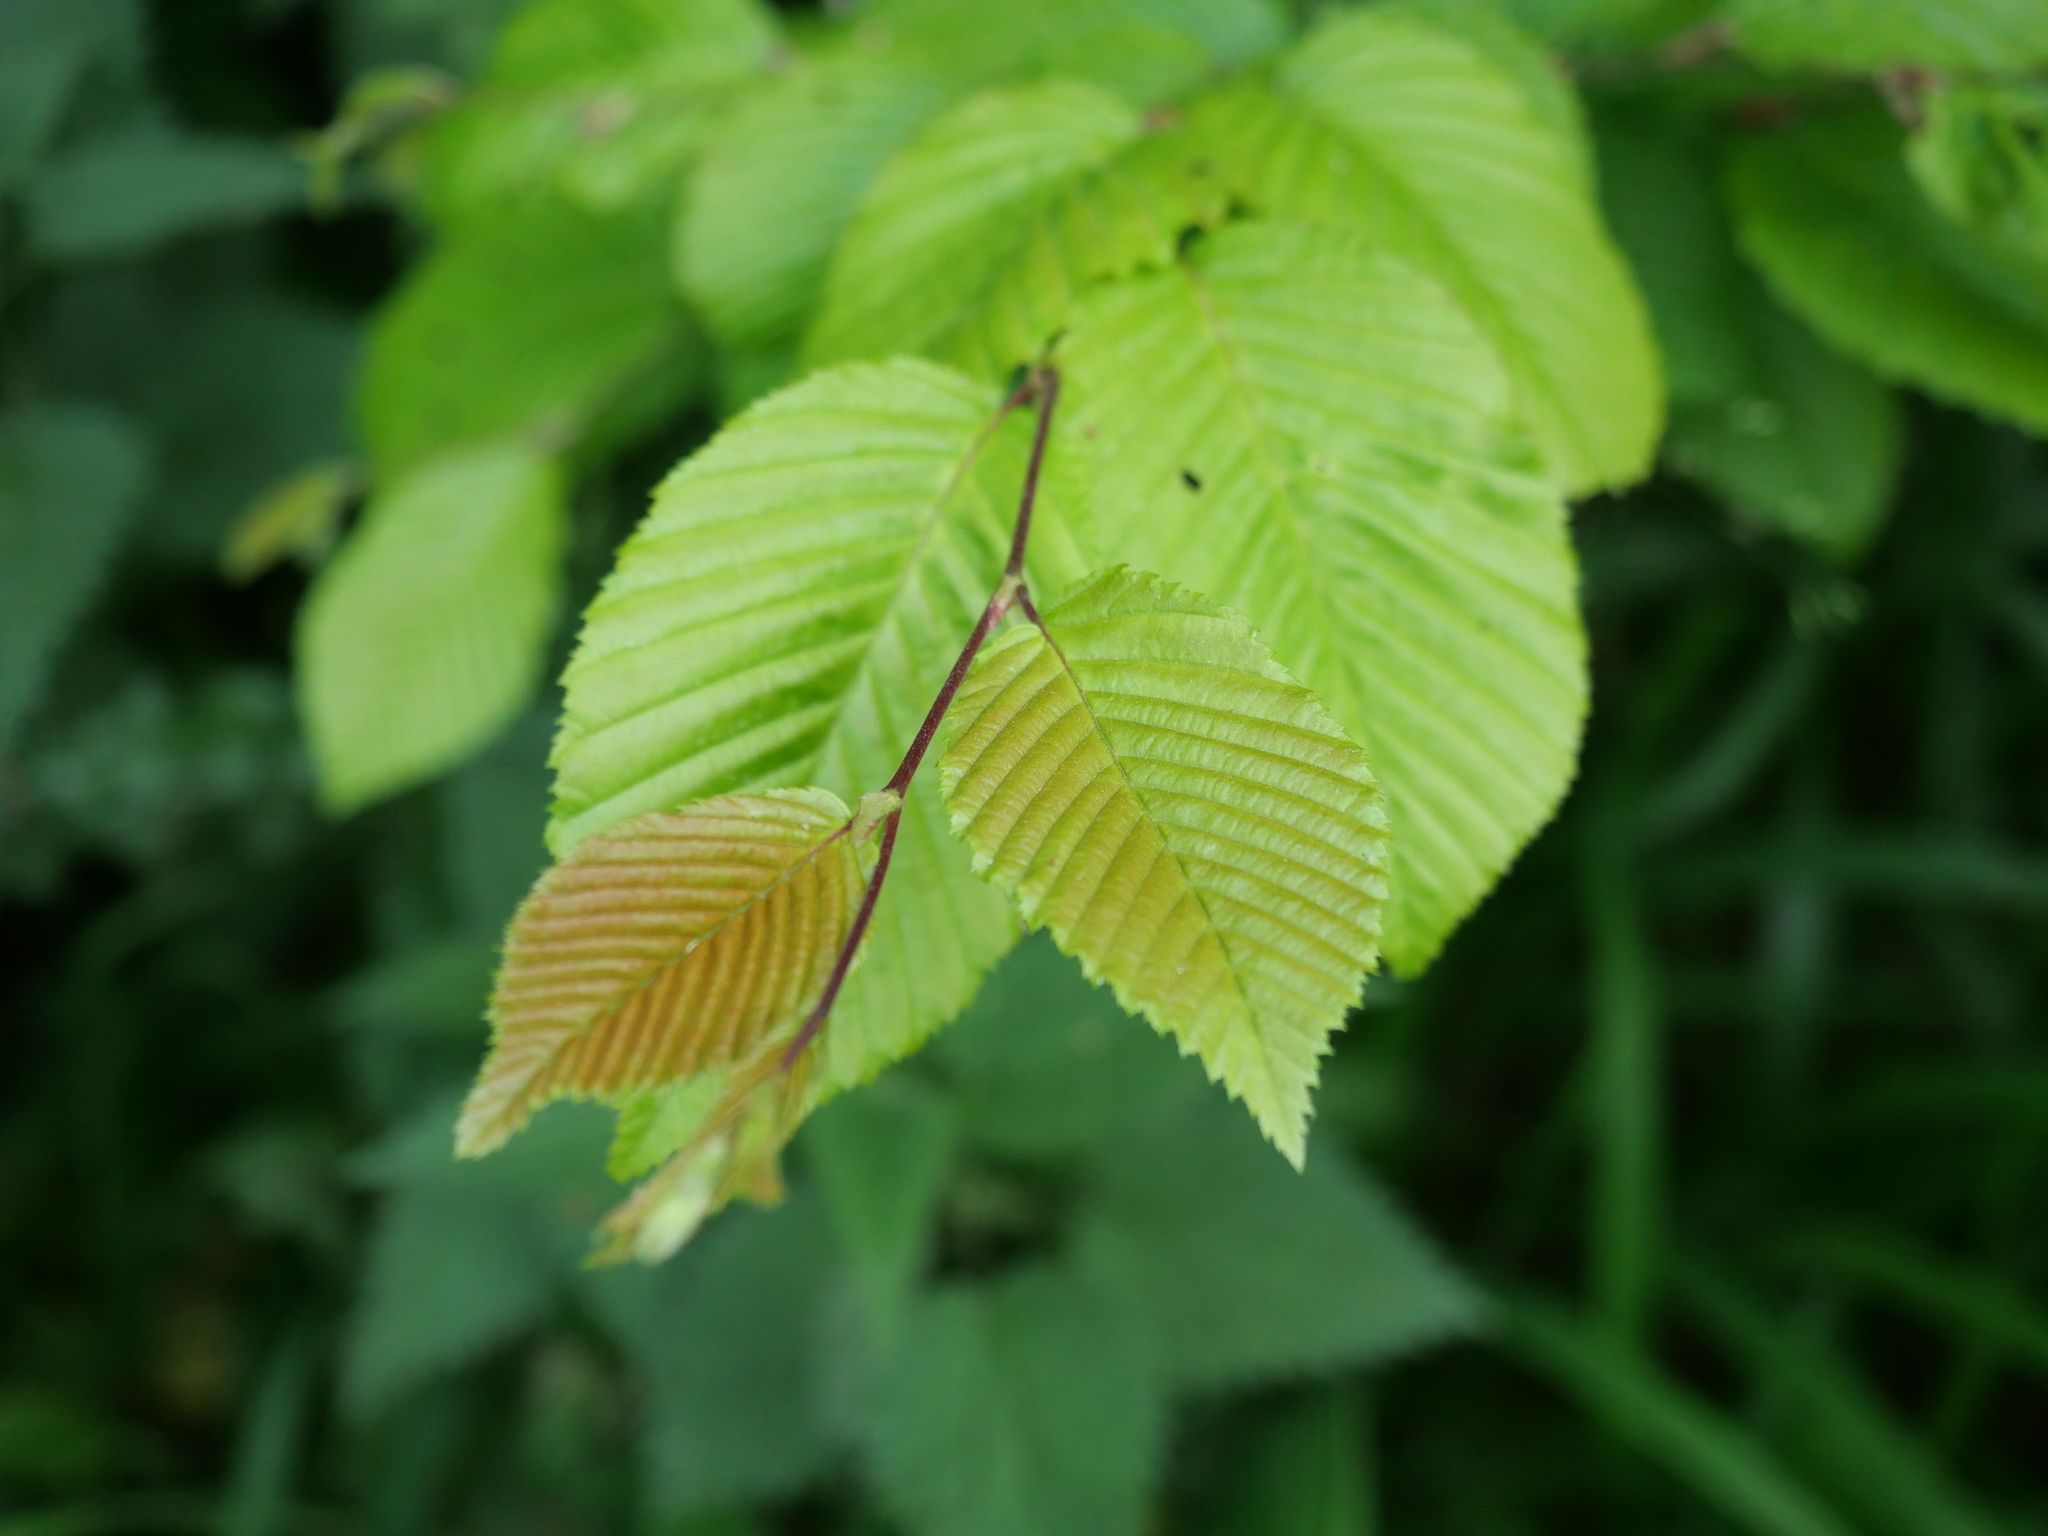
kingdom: Plantae
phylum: Tracheophyta
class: Magnoliopsida
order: Fagales
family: Betulaceae
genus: Carpinus
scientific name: Carpinus betulus
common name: Hornbeam
